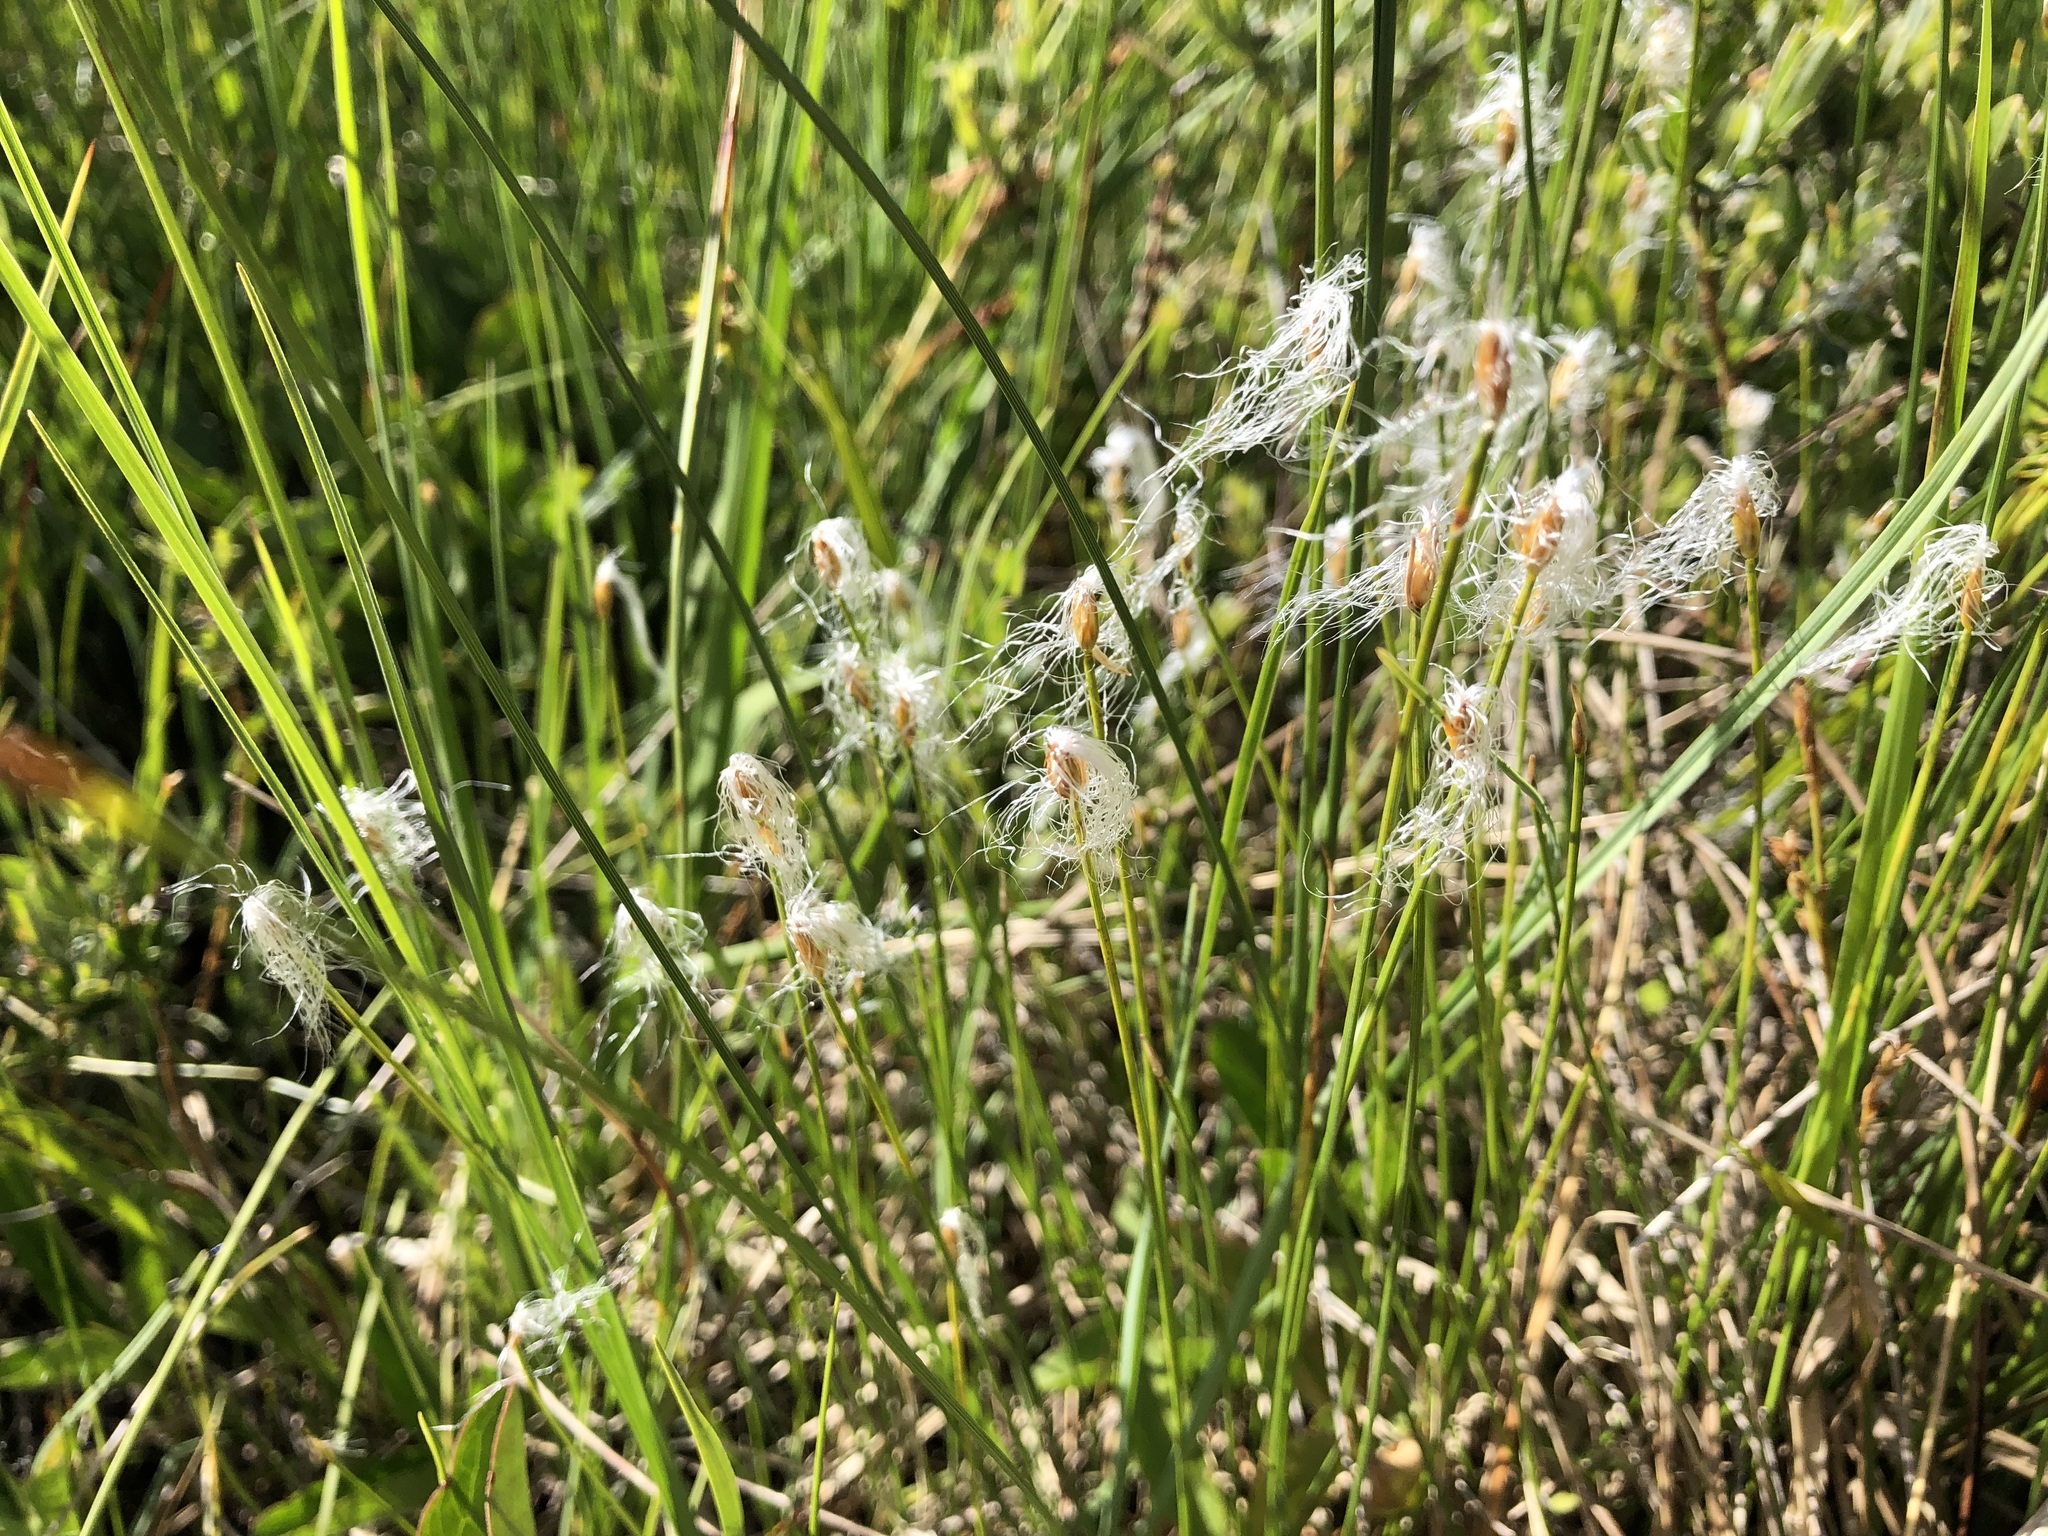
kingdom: Plantae
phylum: Tracheophyta
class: Liliopsida
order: Poales
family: Cyperaceae
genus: Trichophorum
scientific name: Trichophorum alpinum
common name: Alpine bulrush
